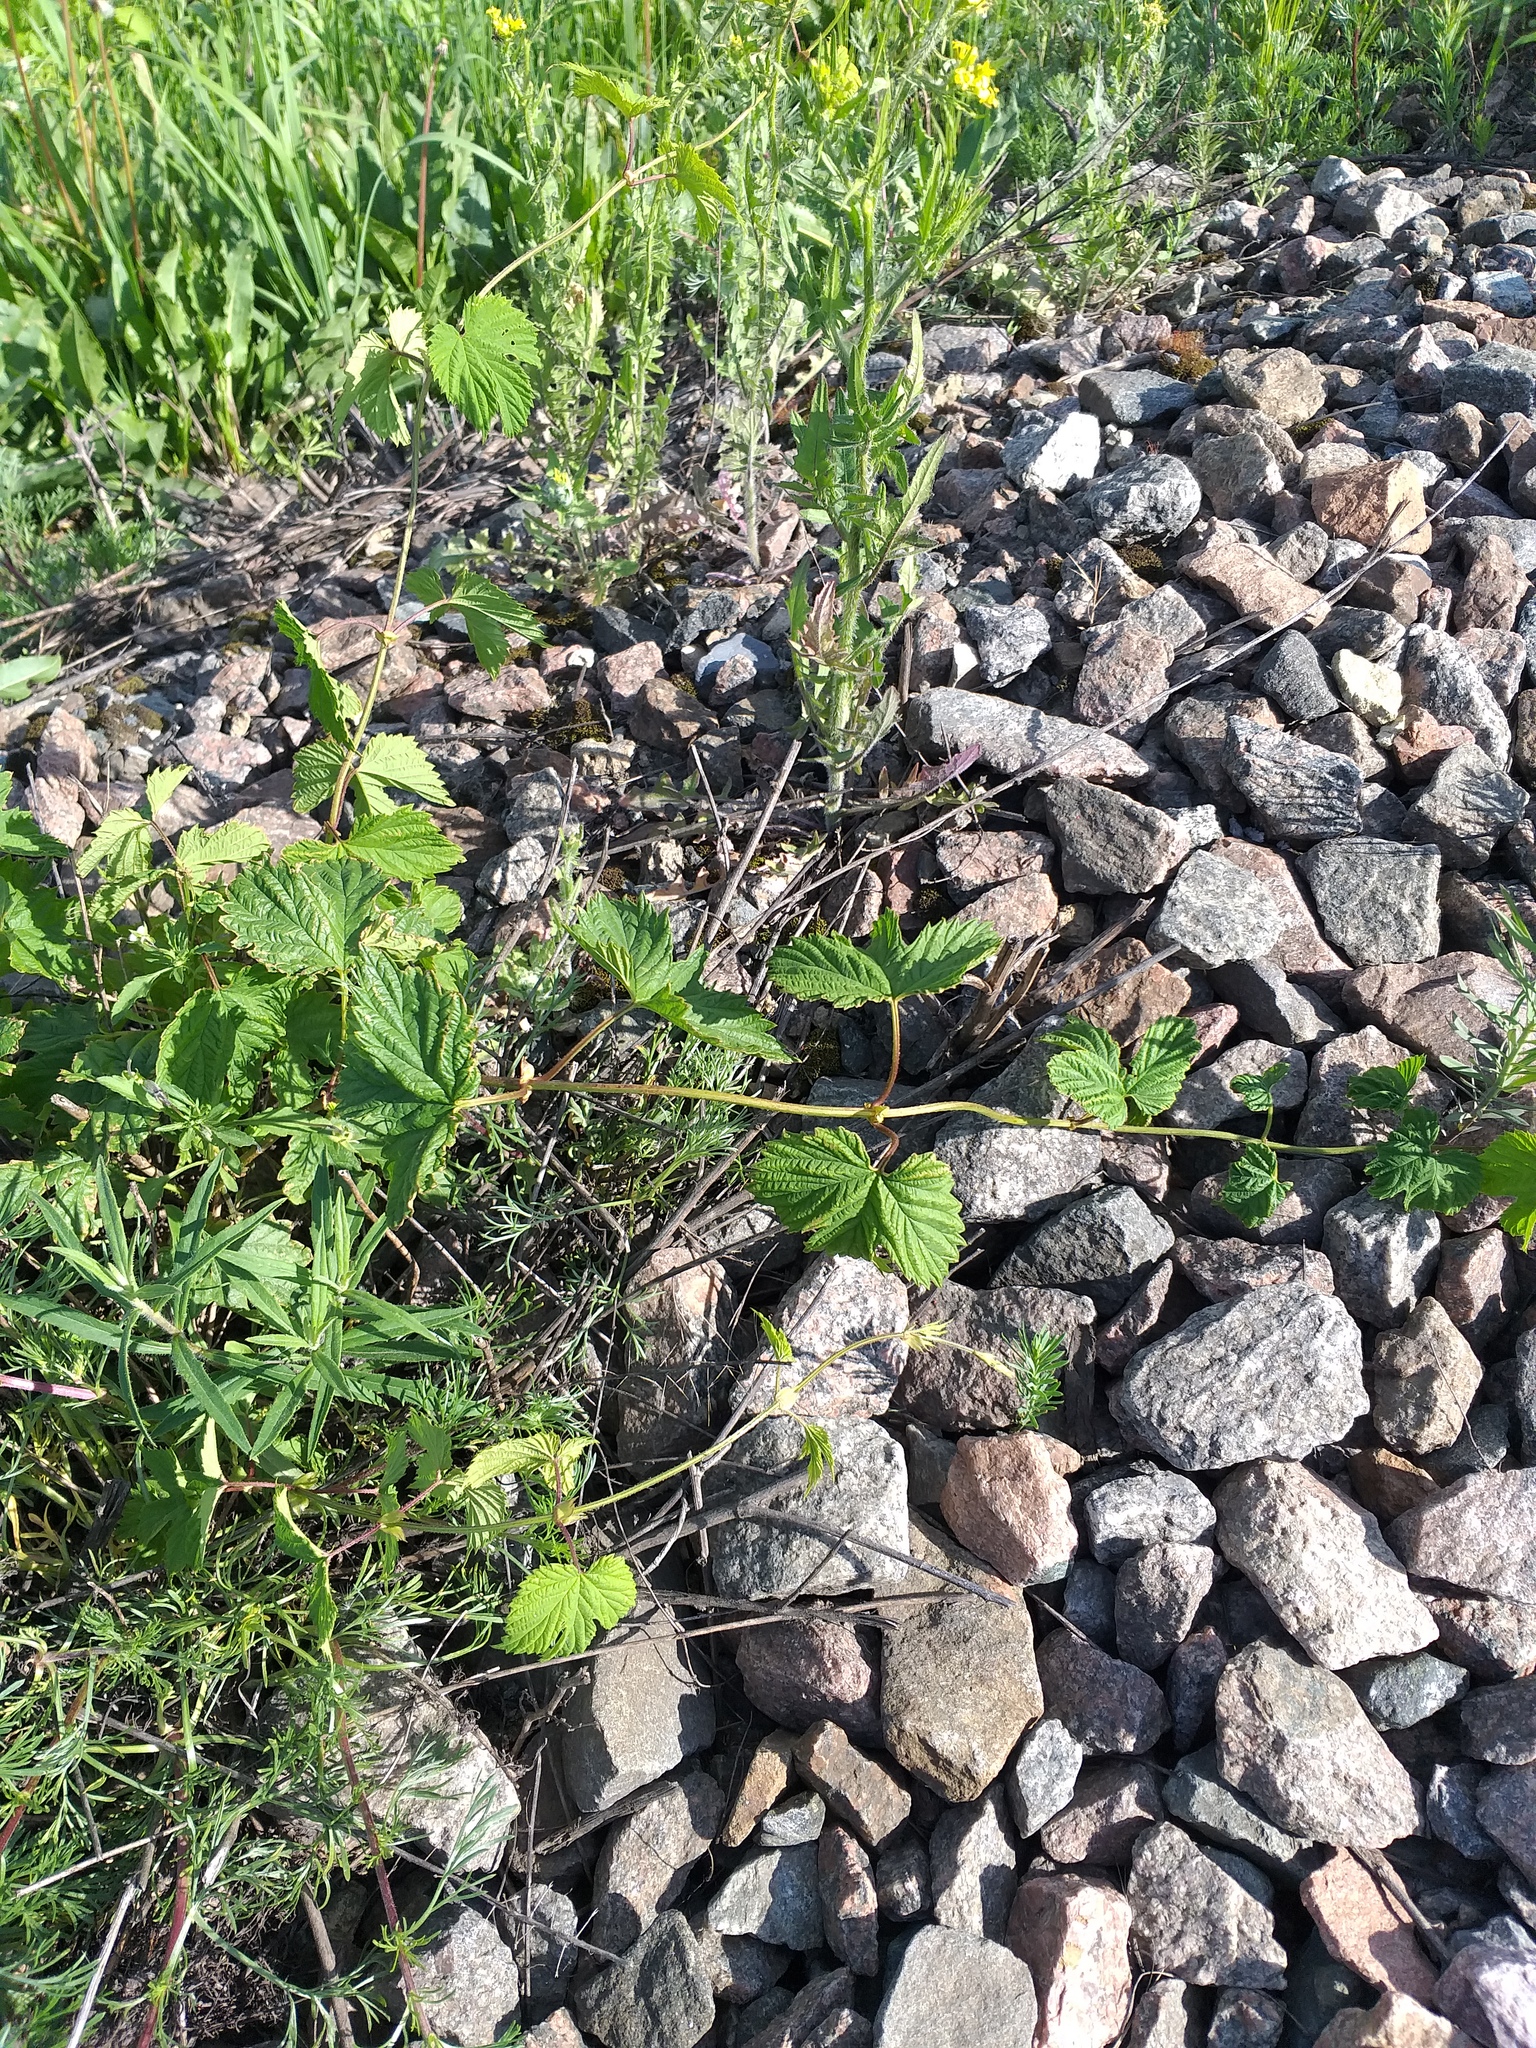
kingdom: Plantae
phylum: Tracheophyta
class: Magnoliopsida
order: Rosales
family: Cannabaceae
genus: Humulus
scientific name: Humulus lupulus
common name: Hop
